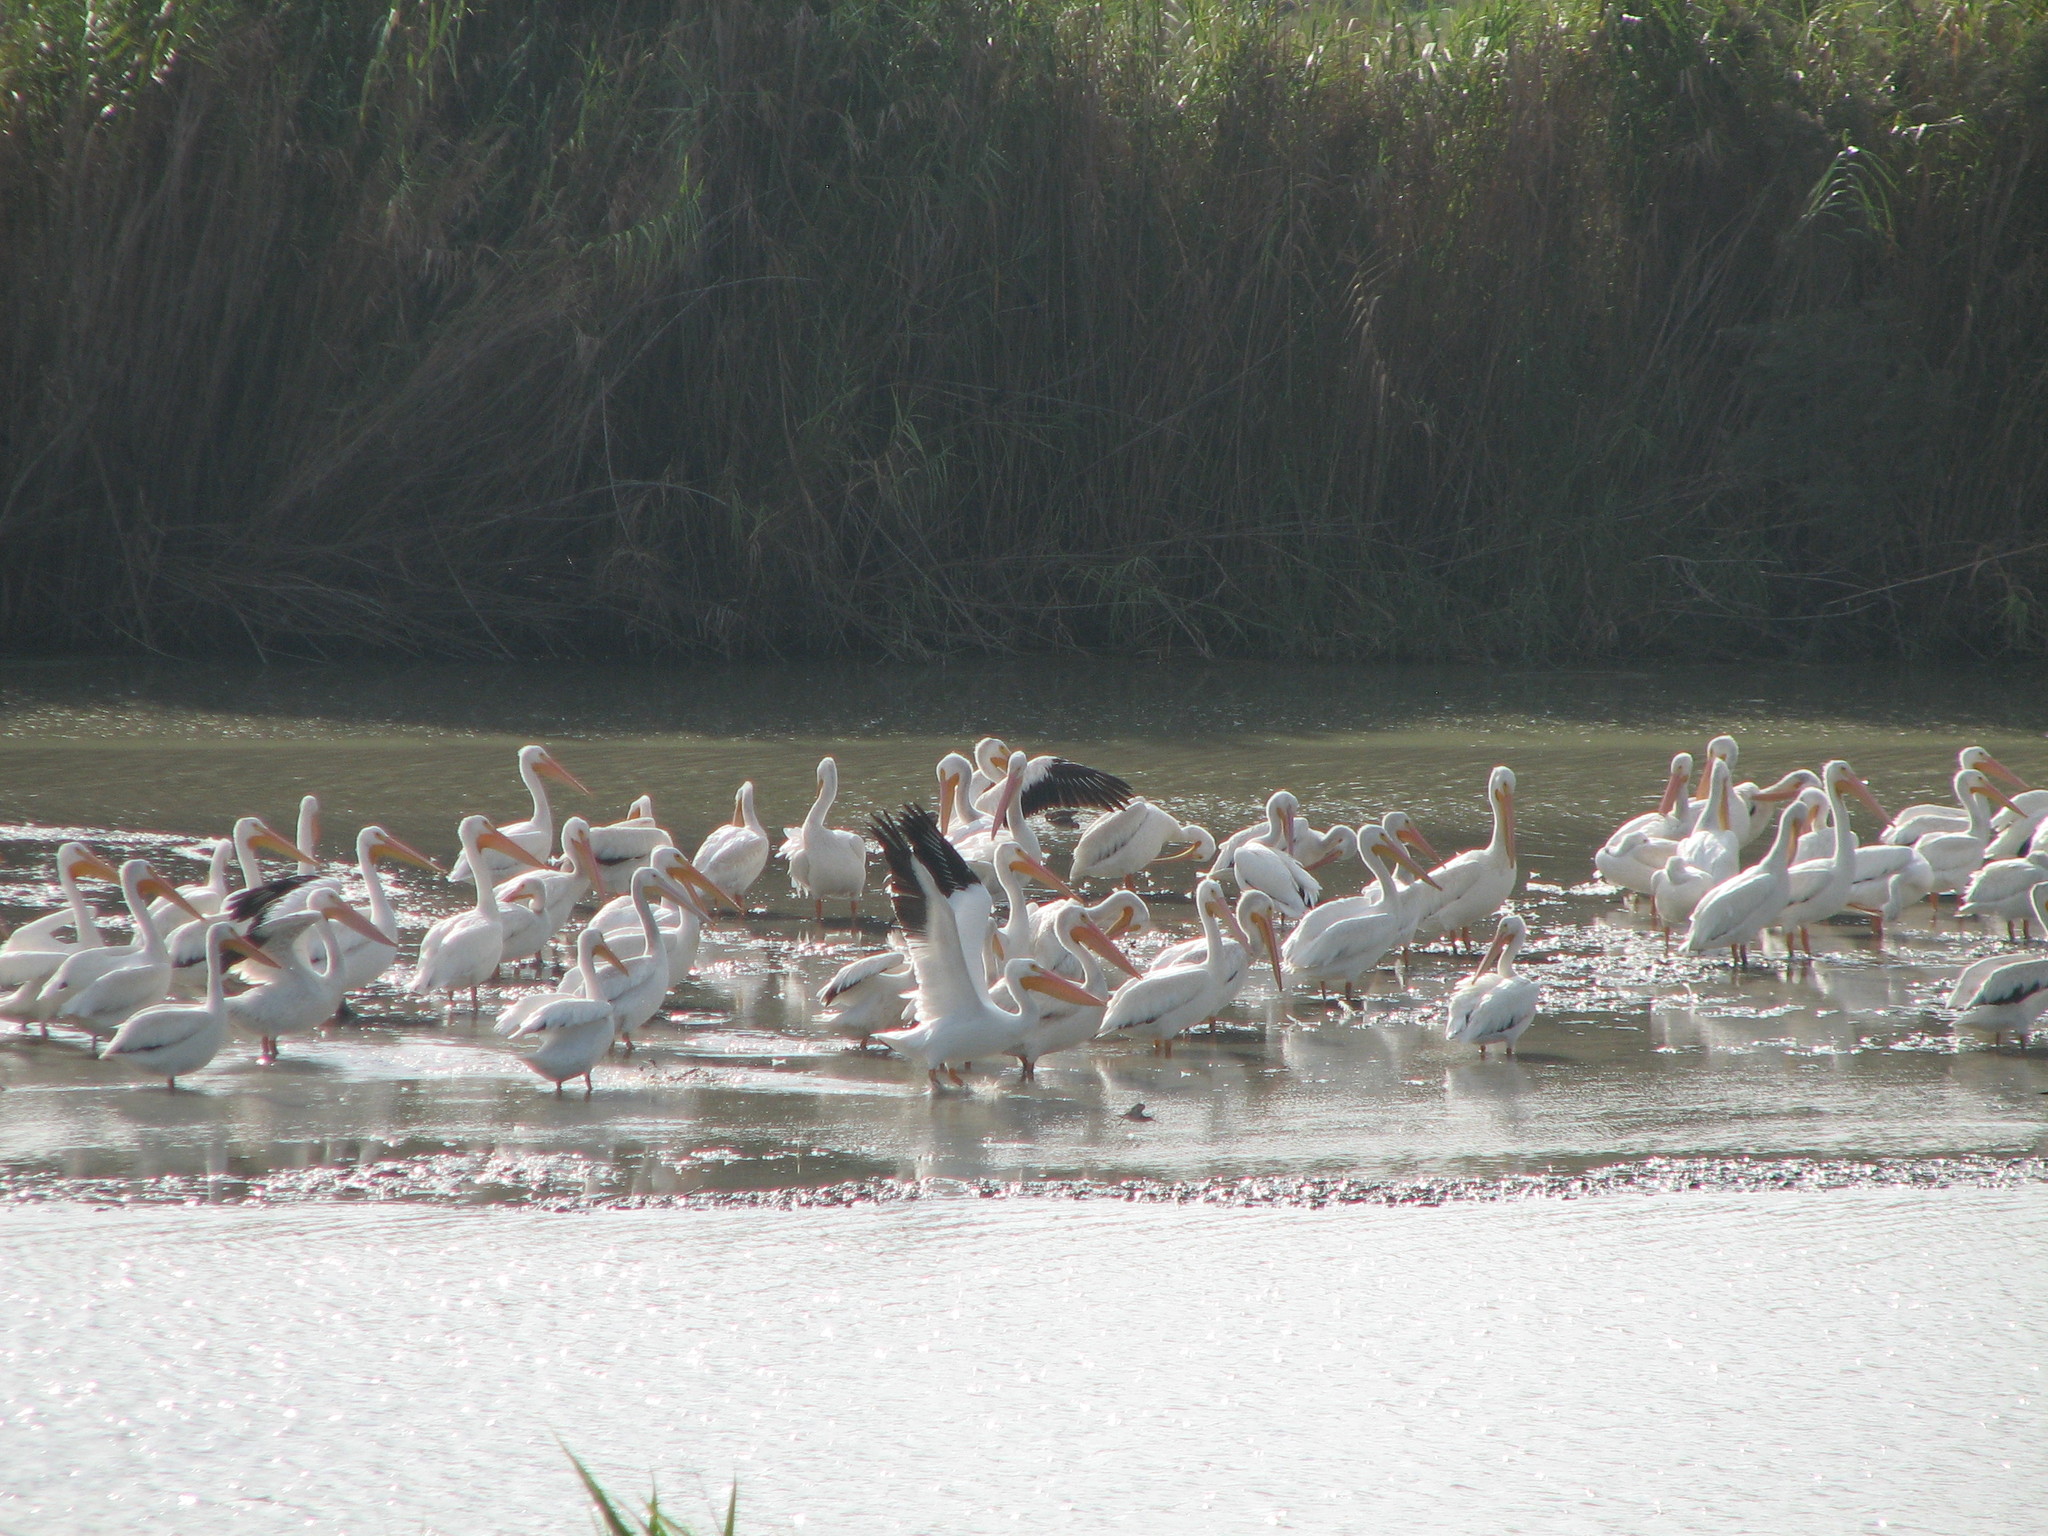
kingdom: Animalia
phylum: Chordata
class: Aves
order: Pelecaniformes
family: Pelecanidae
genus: Pelecanus
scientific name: Pelecanus erythrorhynchos
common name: American white pelican
